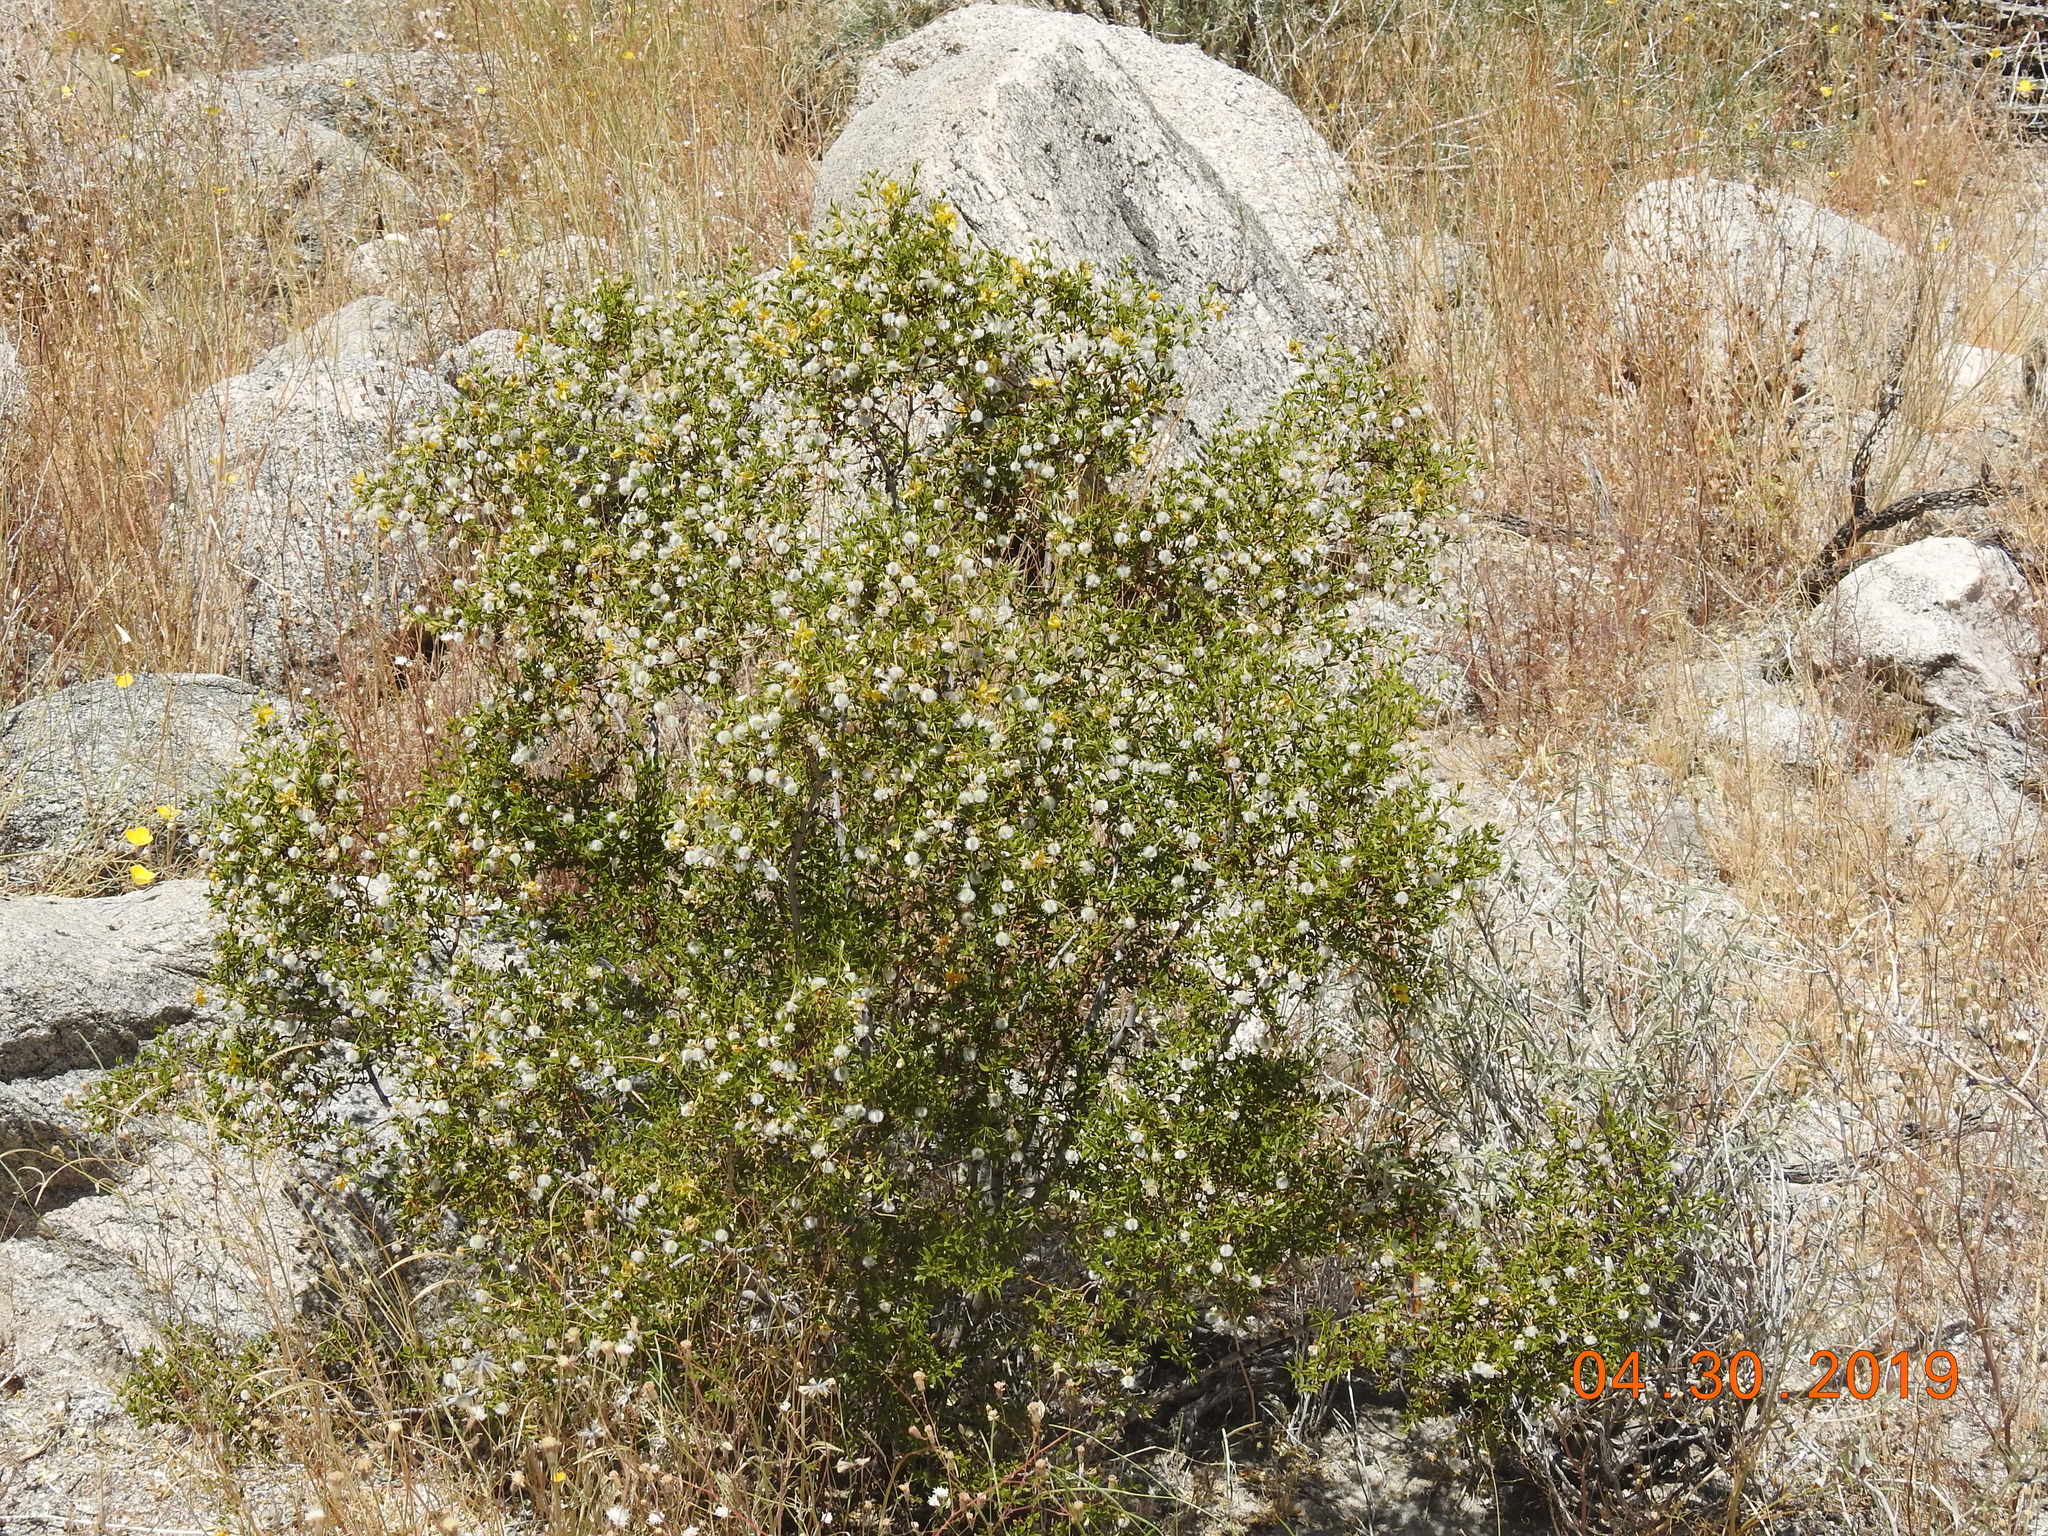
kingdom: Plantae
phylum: Tracheophyta
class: Magnoliopsida
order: Zygophyllales
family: Zygophyllaceae
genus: Larrea
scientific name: Larrea tridentata
